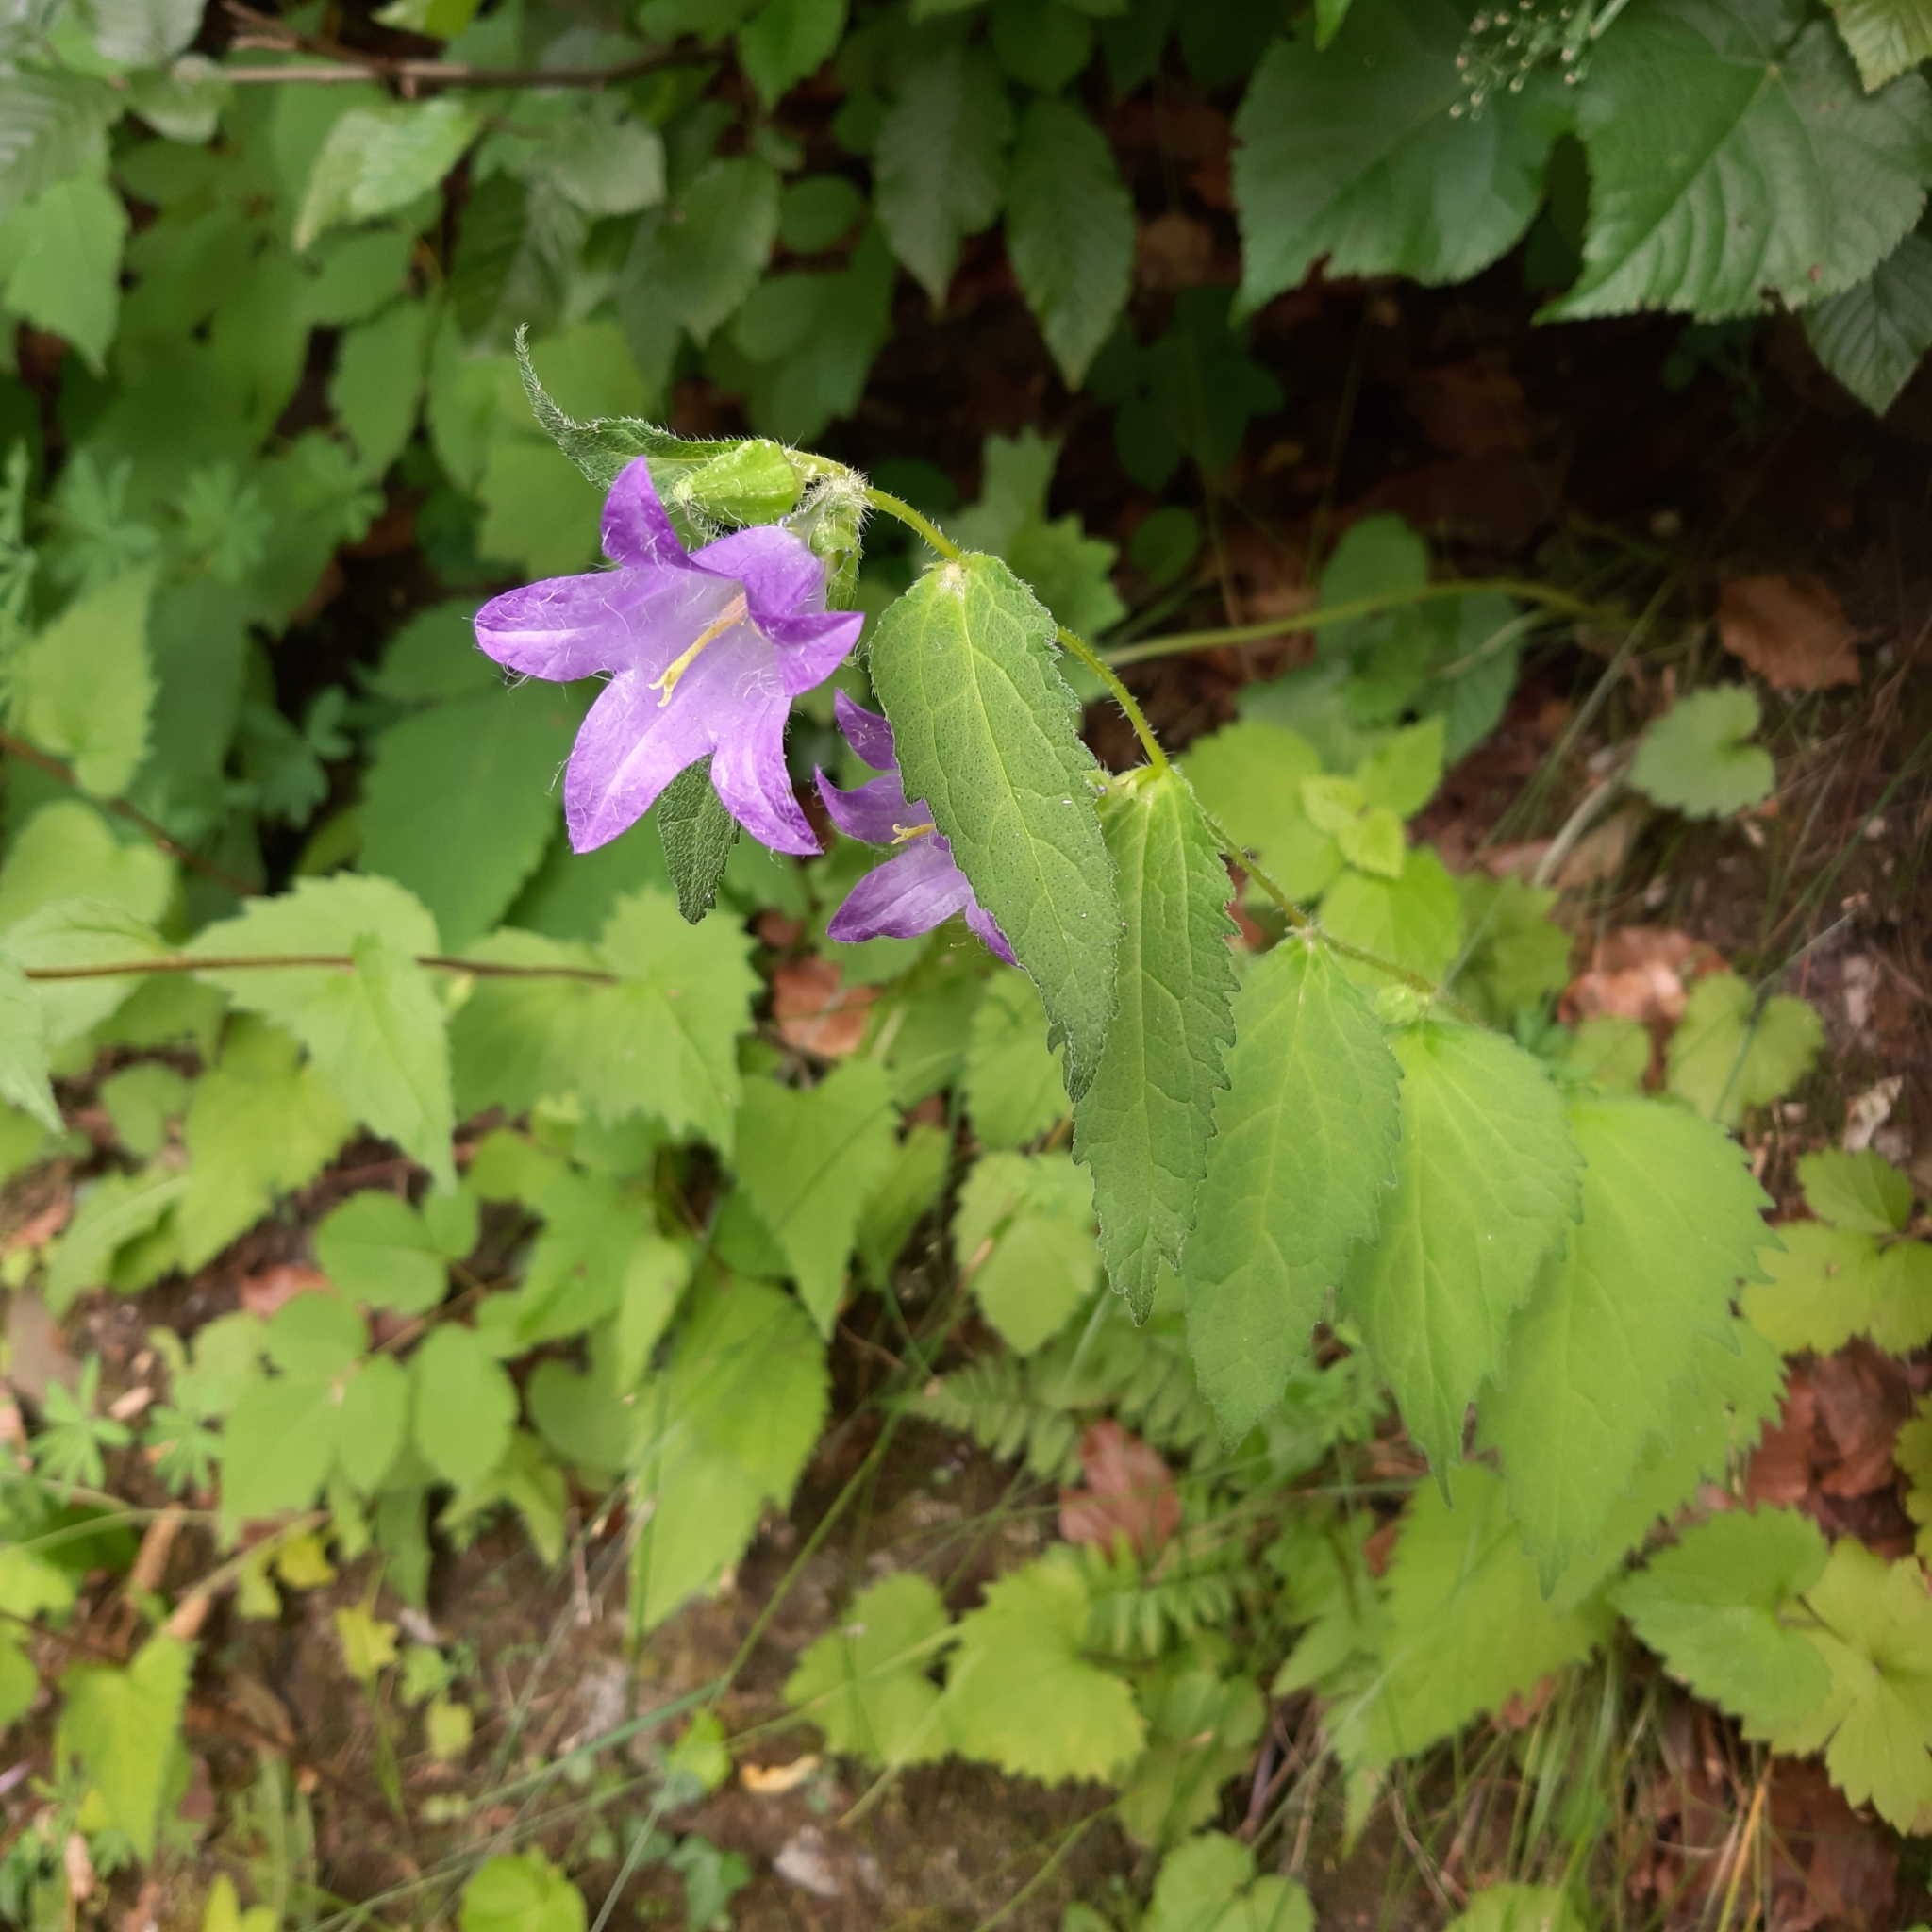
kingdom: Plantae
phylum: Tracheophyta
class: Magnoliopsida
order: Asterales
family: Campanulaceae
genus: Campanula
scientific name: Campanula trachelium
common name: Nettle-leaved bellflower
